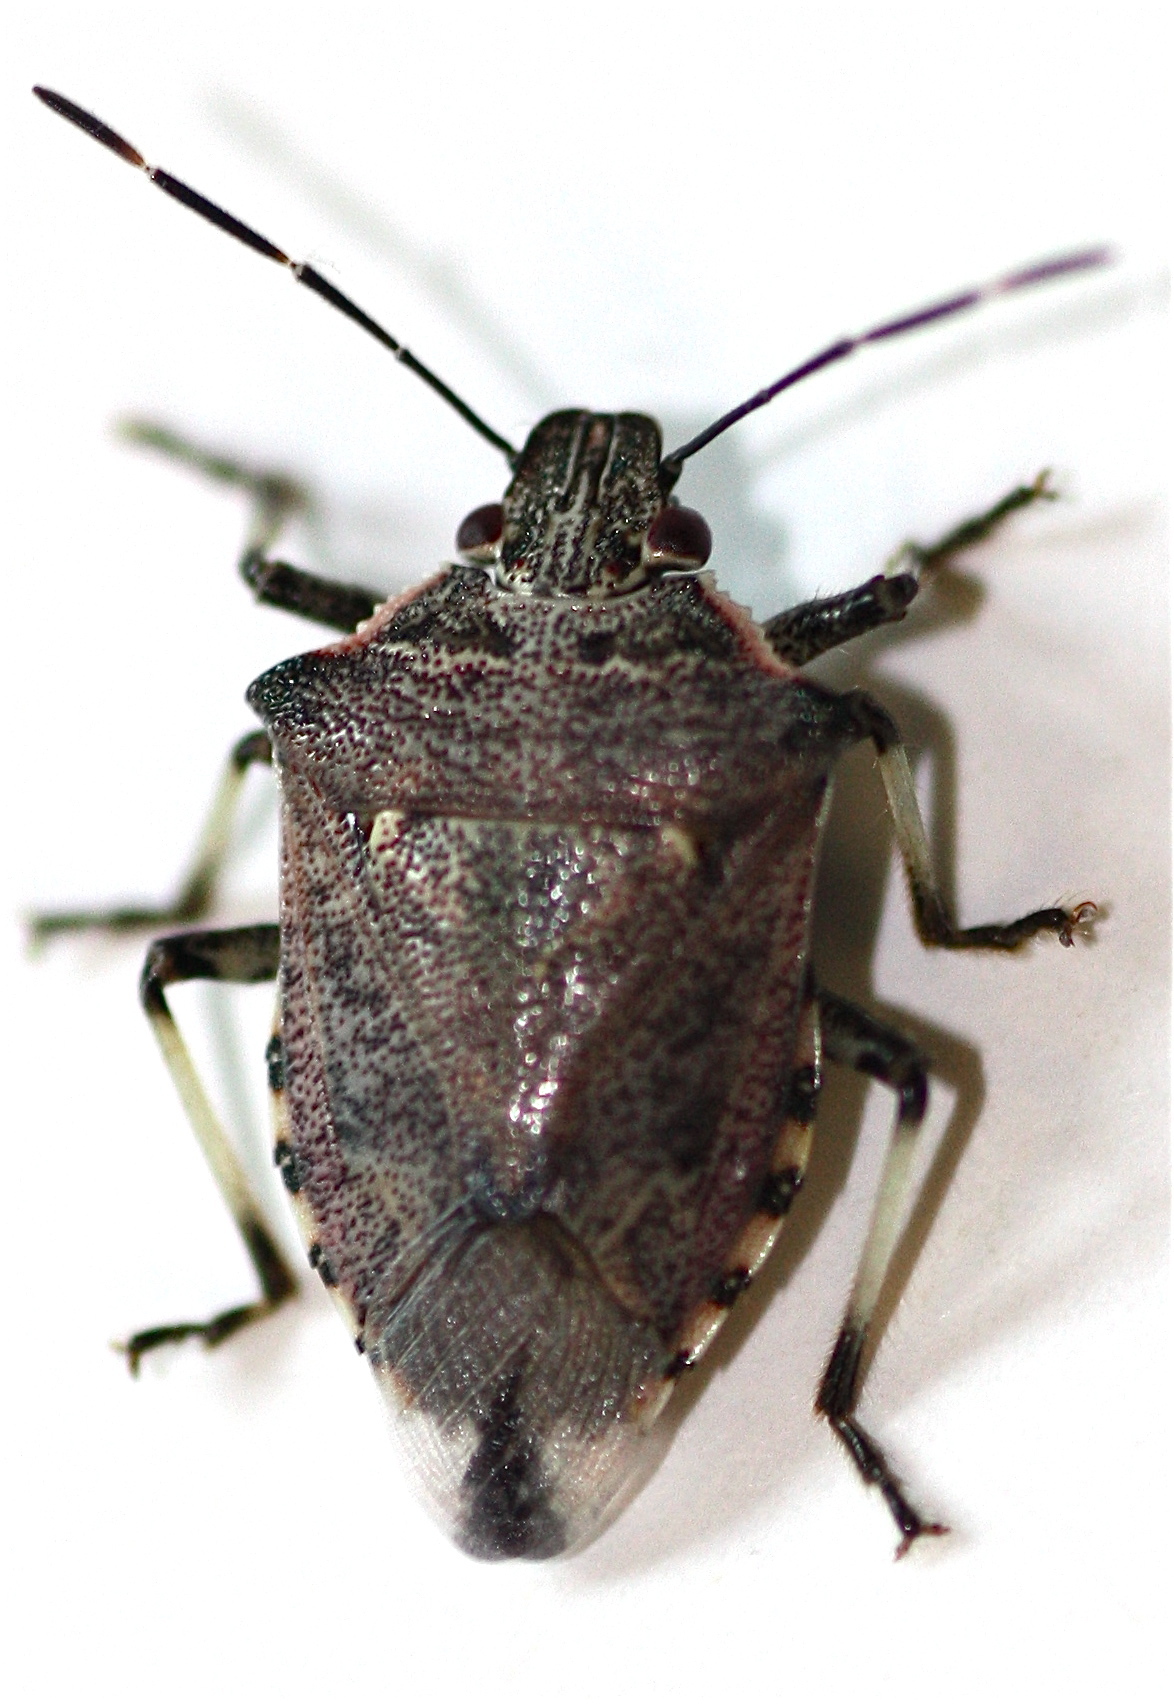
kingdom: Animalia
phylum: Arthropoda
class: Insecta
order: Hemiptera
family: Pentatomidae
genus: Podisus
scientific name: Podisus serieventris
